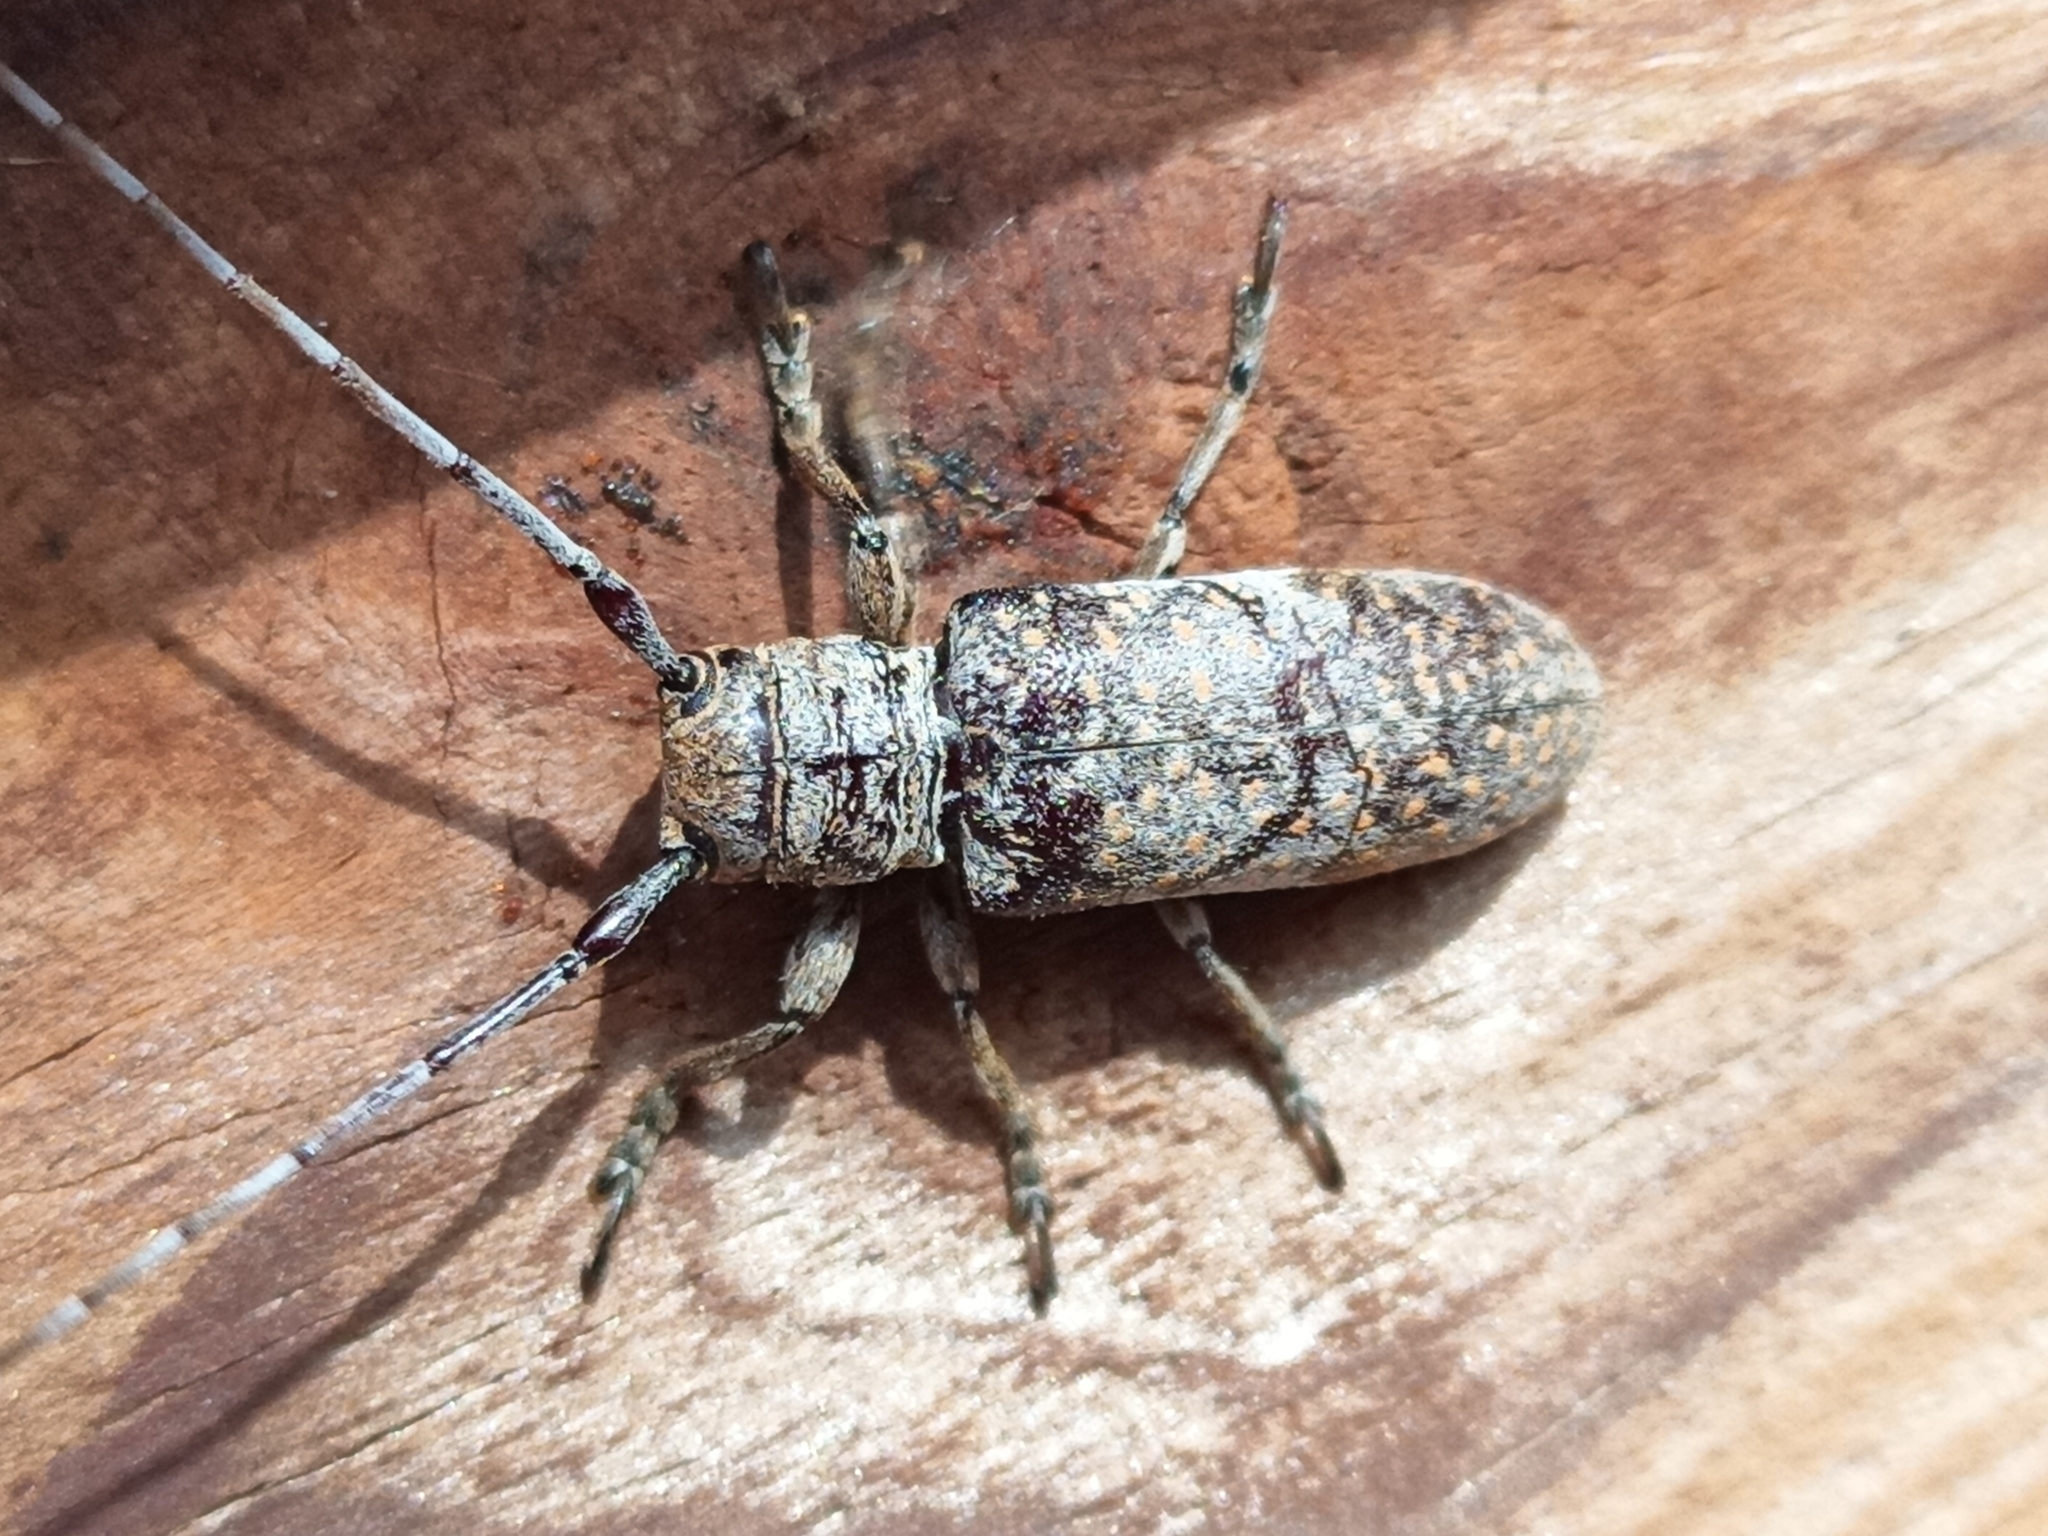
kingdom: Animalia
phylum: Arthropoda
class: Insecta
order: Coleoptera
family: Cerambycidae
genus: Oncideres
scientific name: Oncideres cingulata
